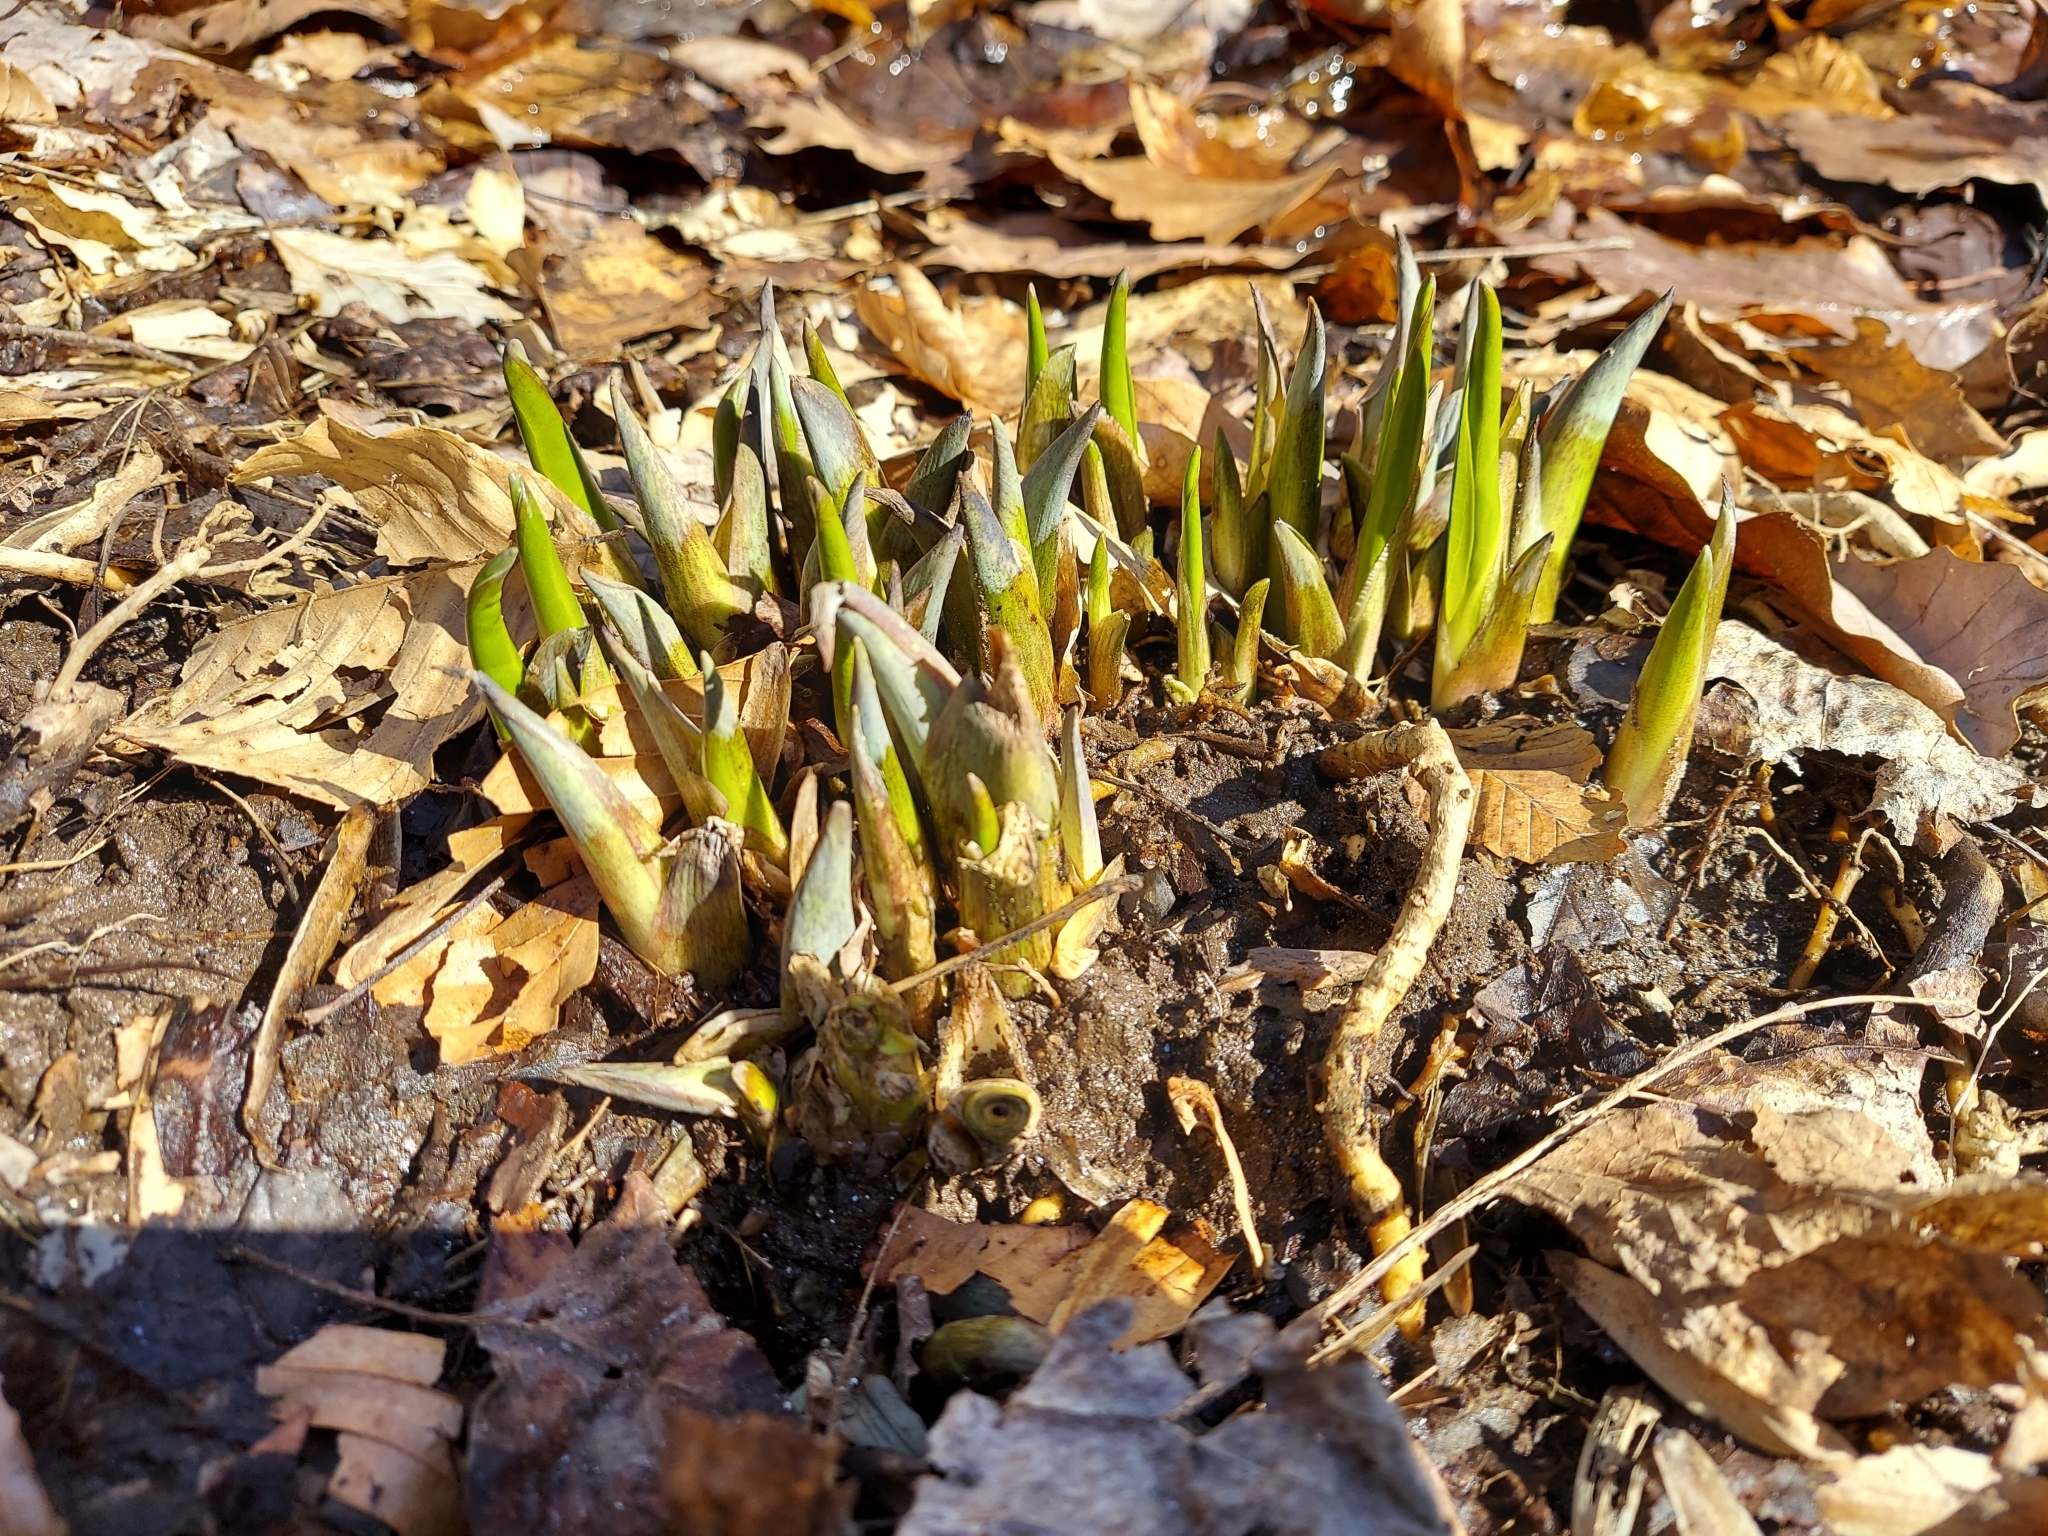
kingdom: Plantae
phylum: Tracheophyta
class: Liliopsida
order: Alismatales
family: Araceae
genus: Symplocarpus
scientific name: Symplocarpus foetidus
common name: Eastern skunk cabbage
